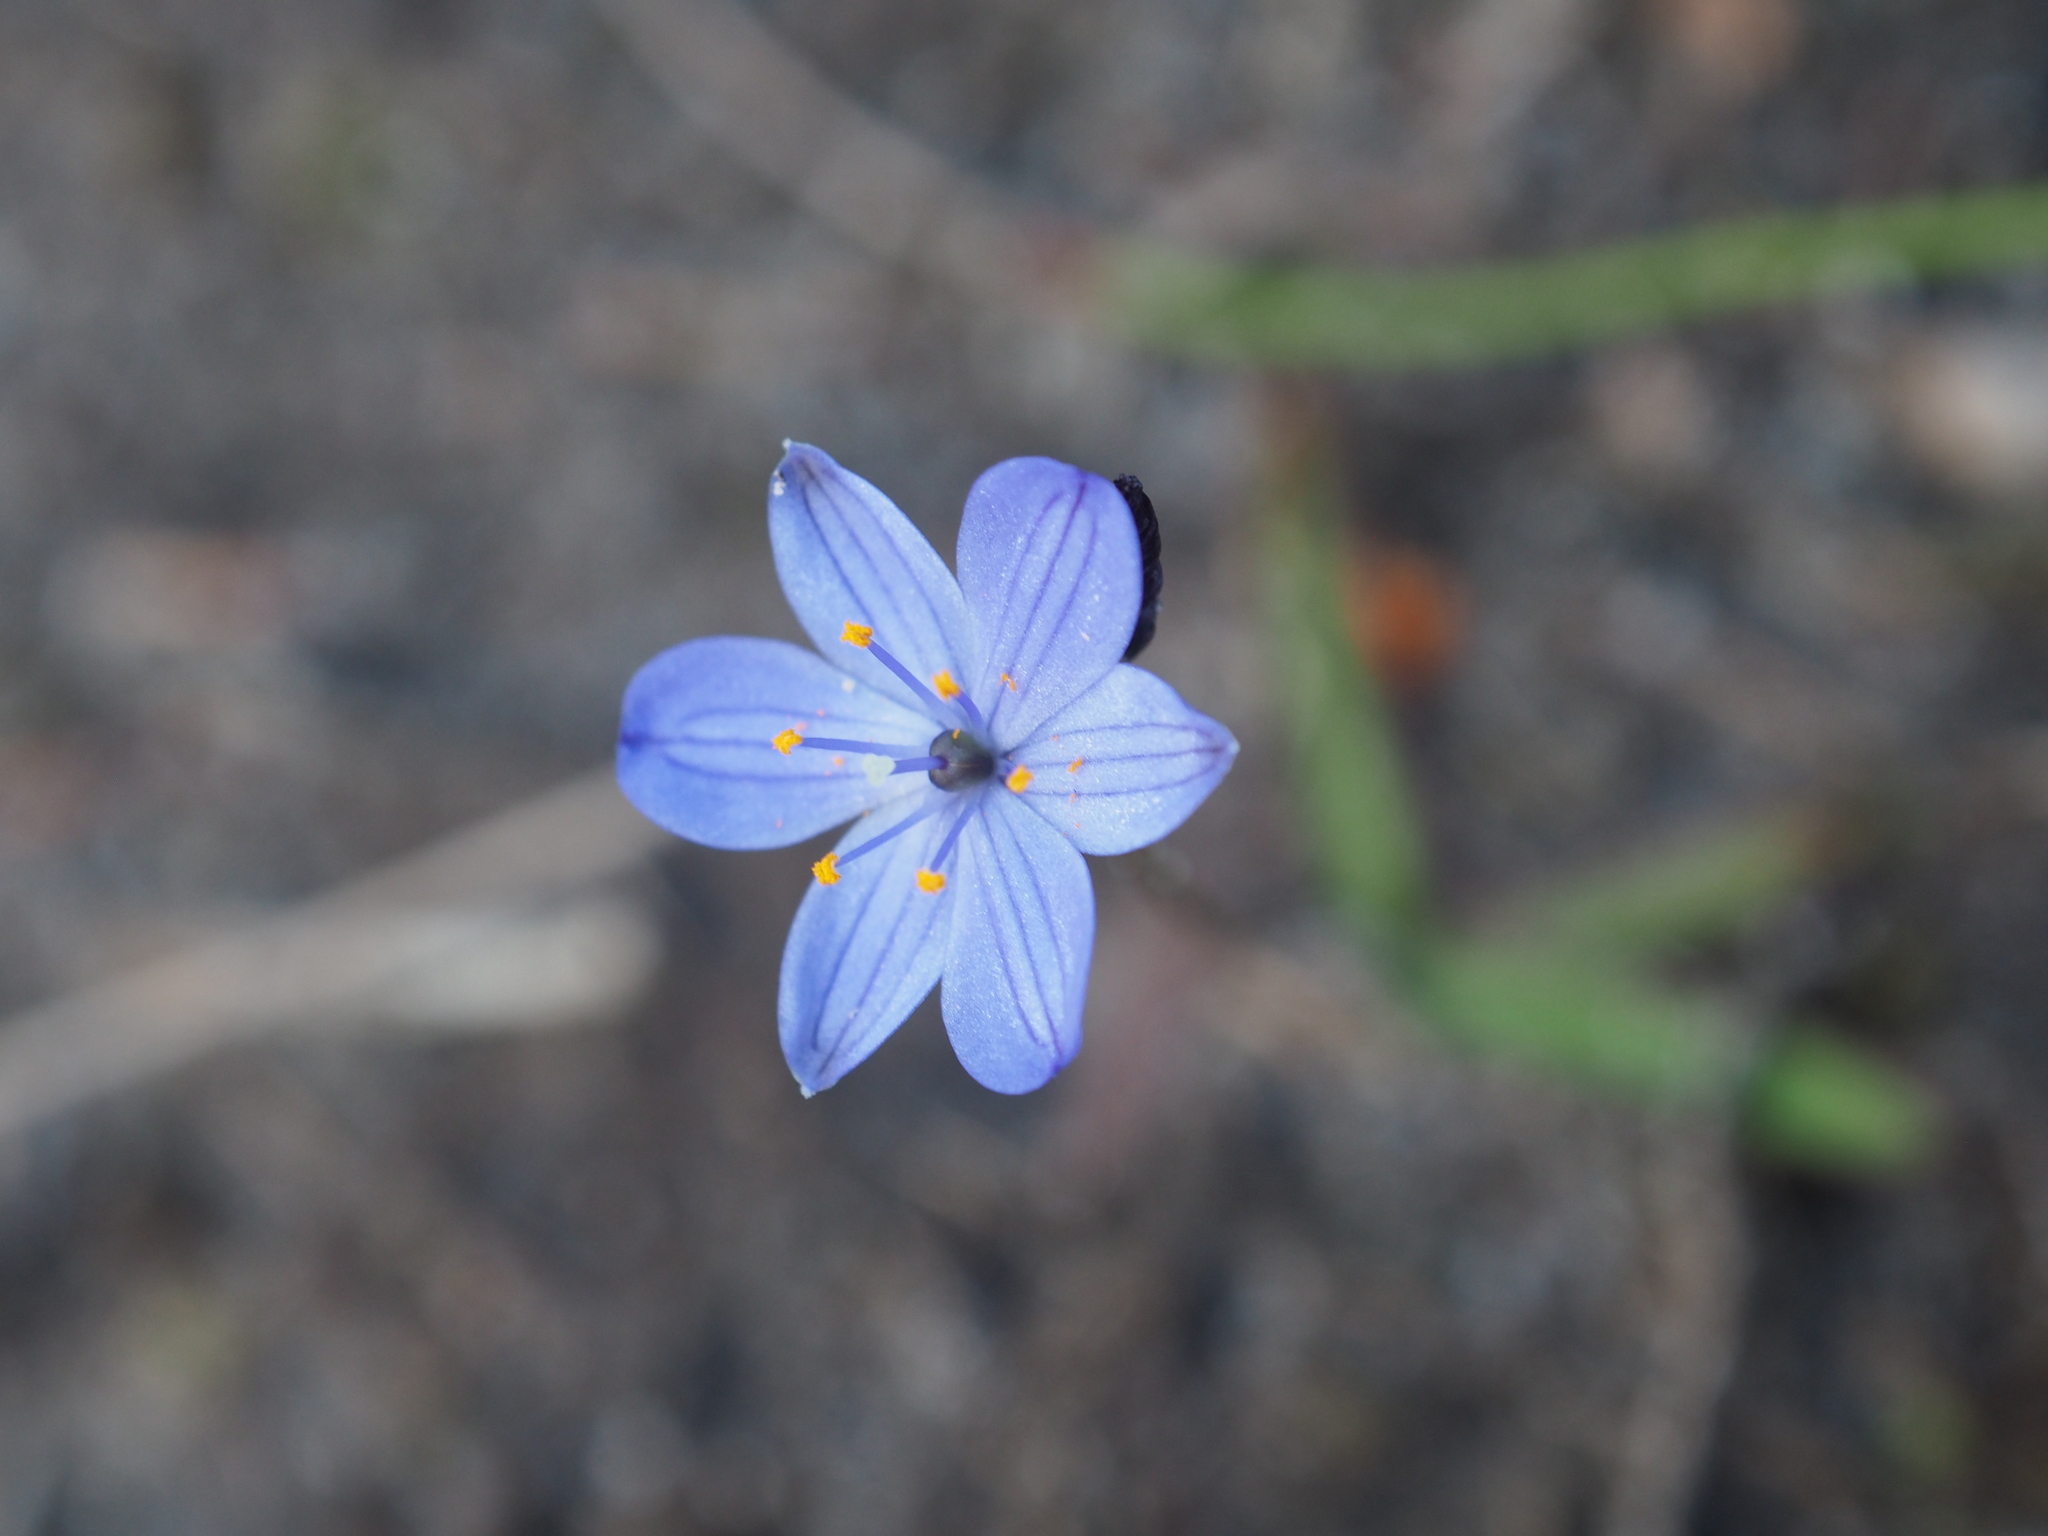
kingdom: Plantae
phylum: Tracheophyta
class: Liliopsida
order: Asparagales
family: Asphodelaceae
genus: Chamaescilla
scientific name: Chamaescilla corymbosa
